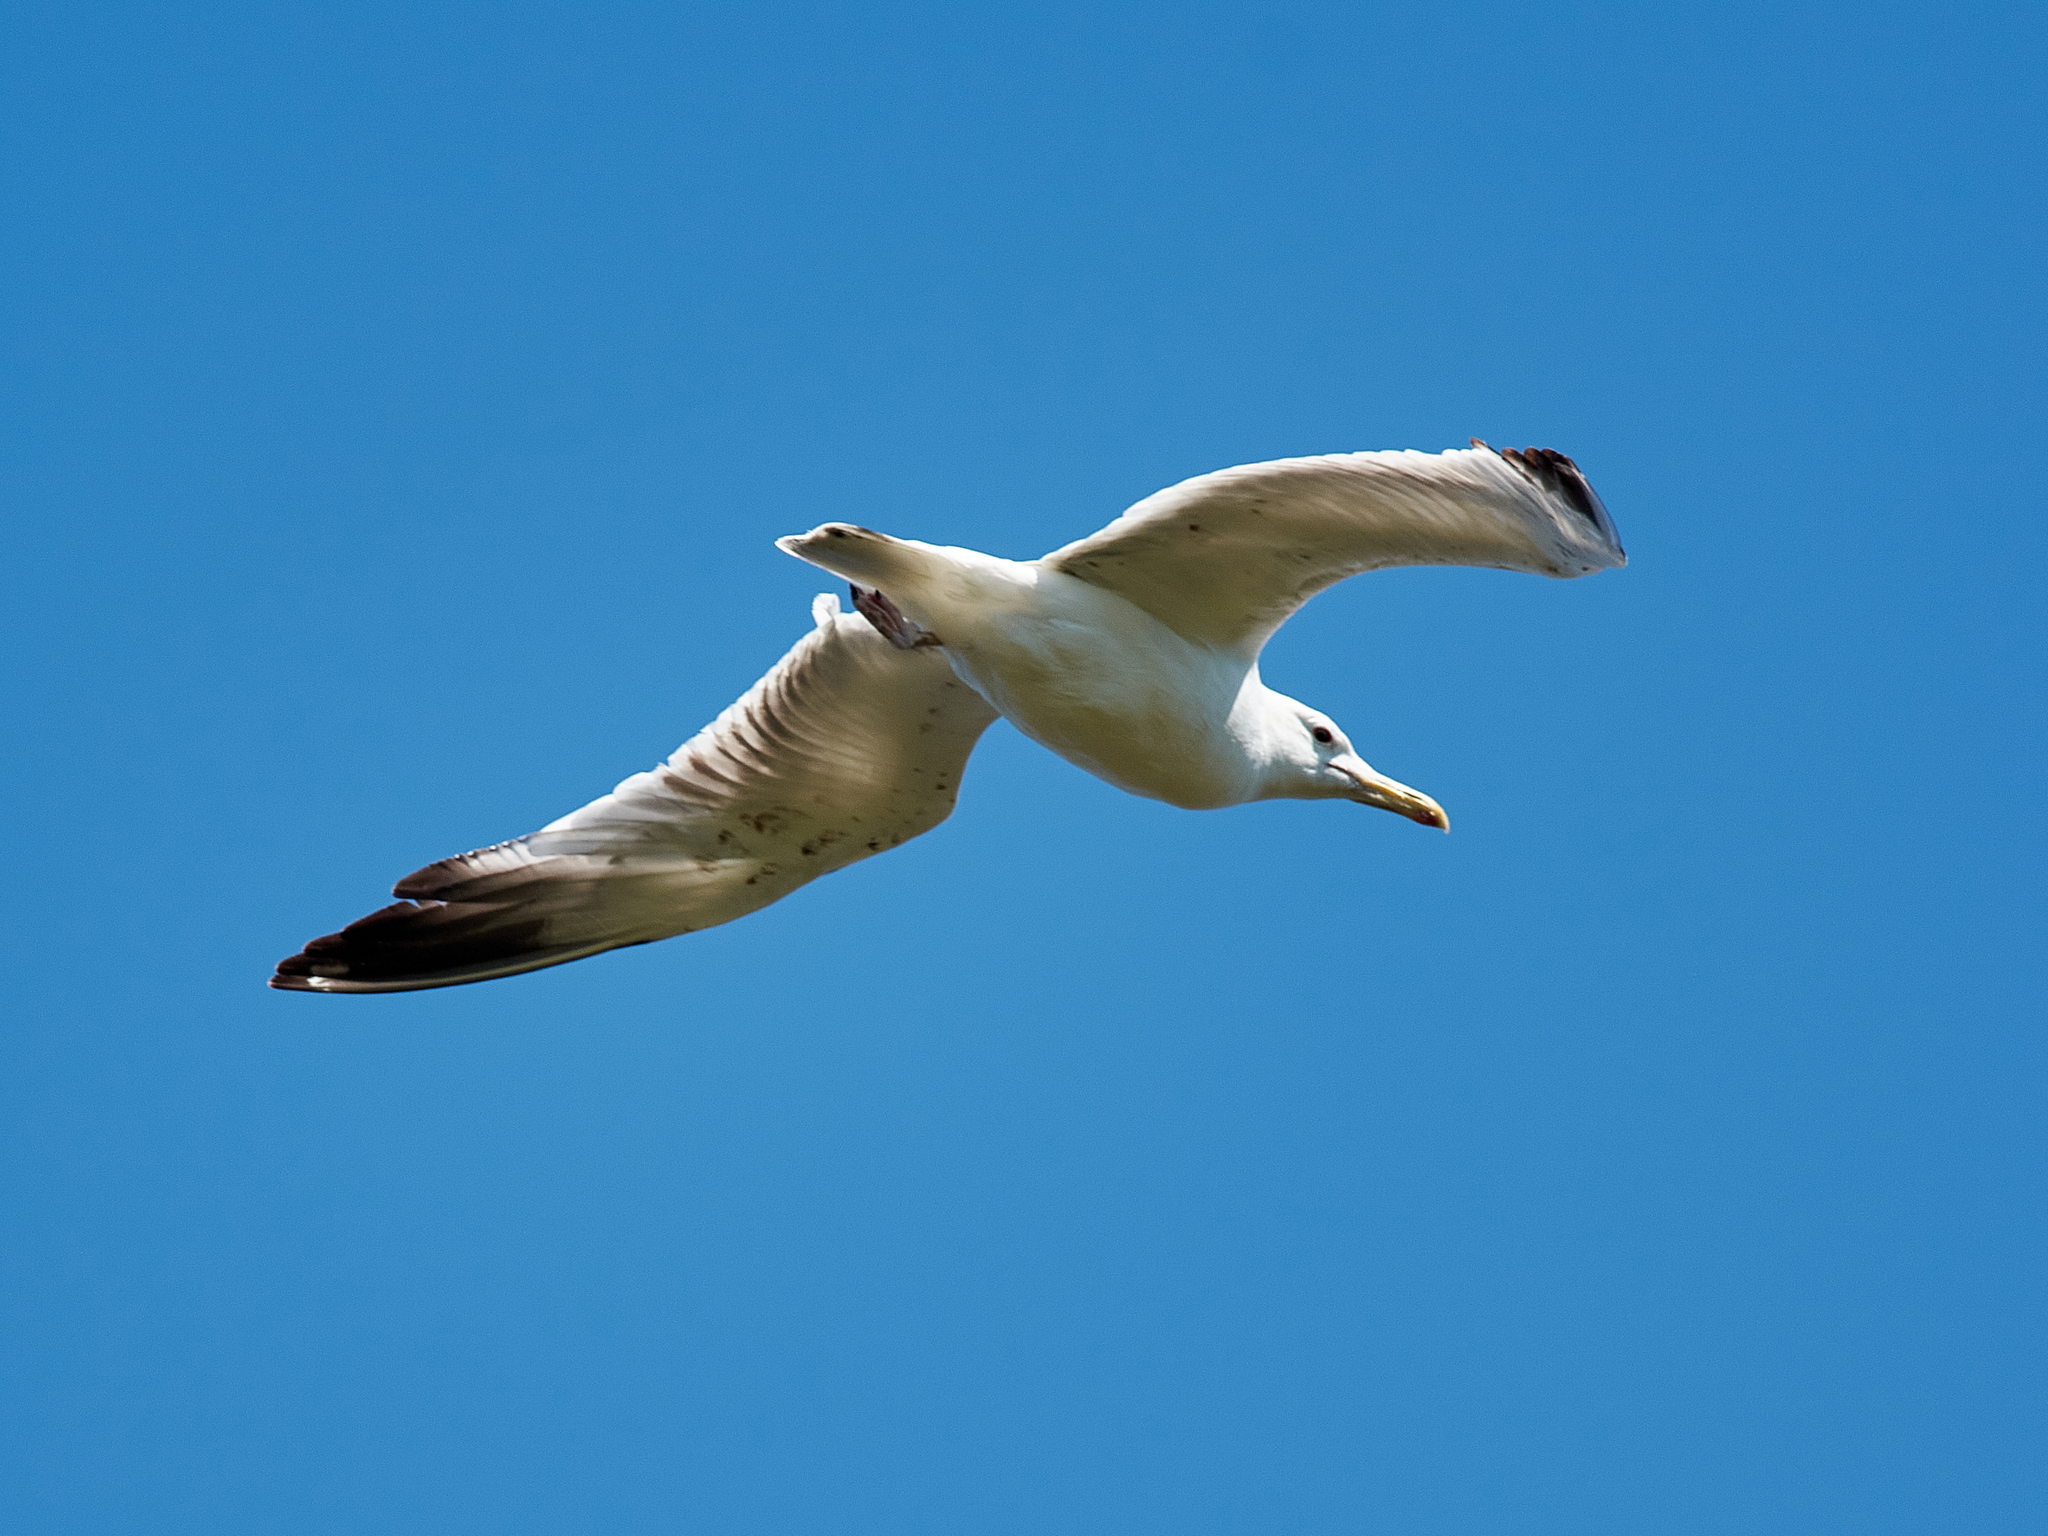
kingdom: Animalia
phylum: Chordata
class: Aves
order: Charadriiformes
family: Laridae
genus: Larus
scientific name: Larus cachinnans
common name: Caspian gull
